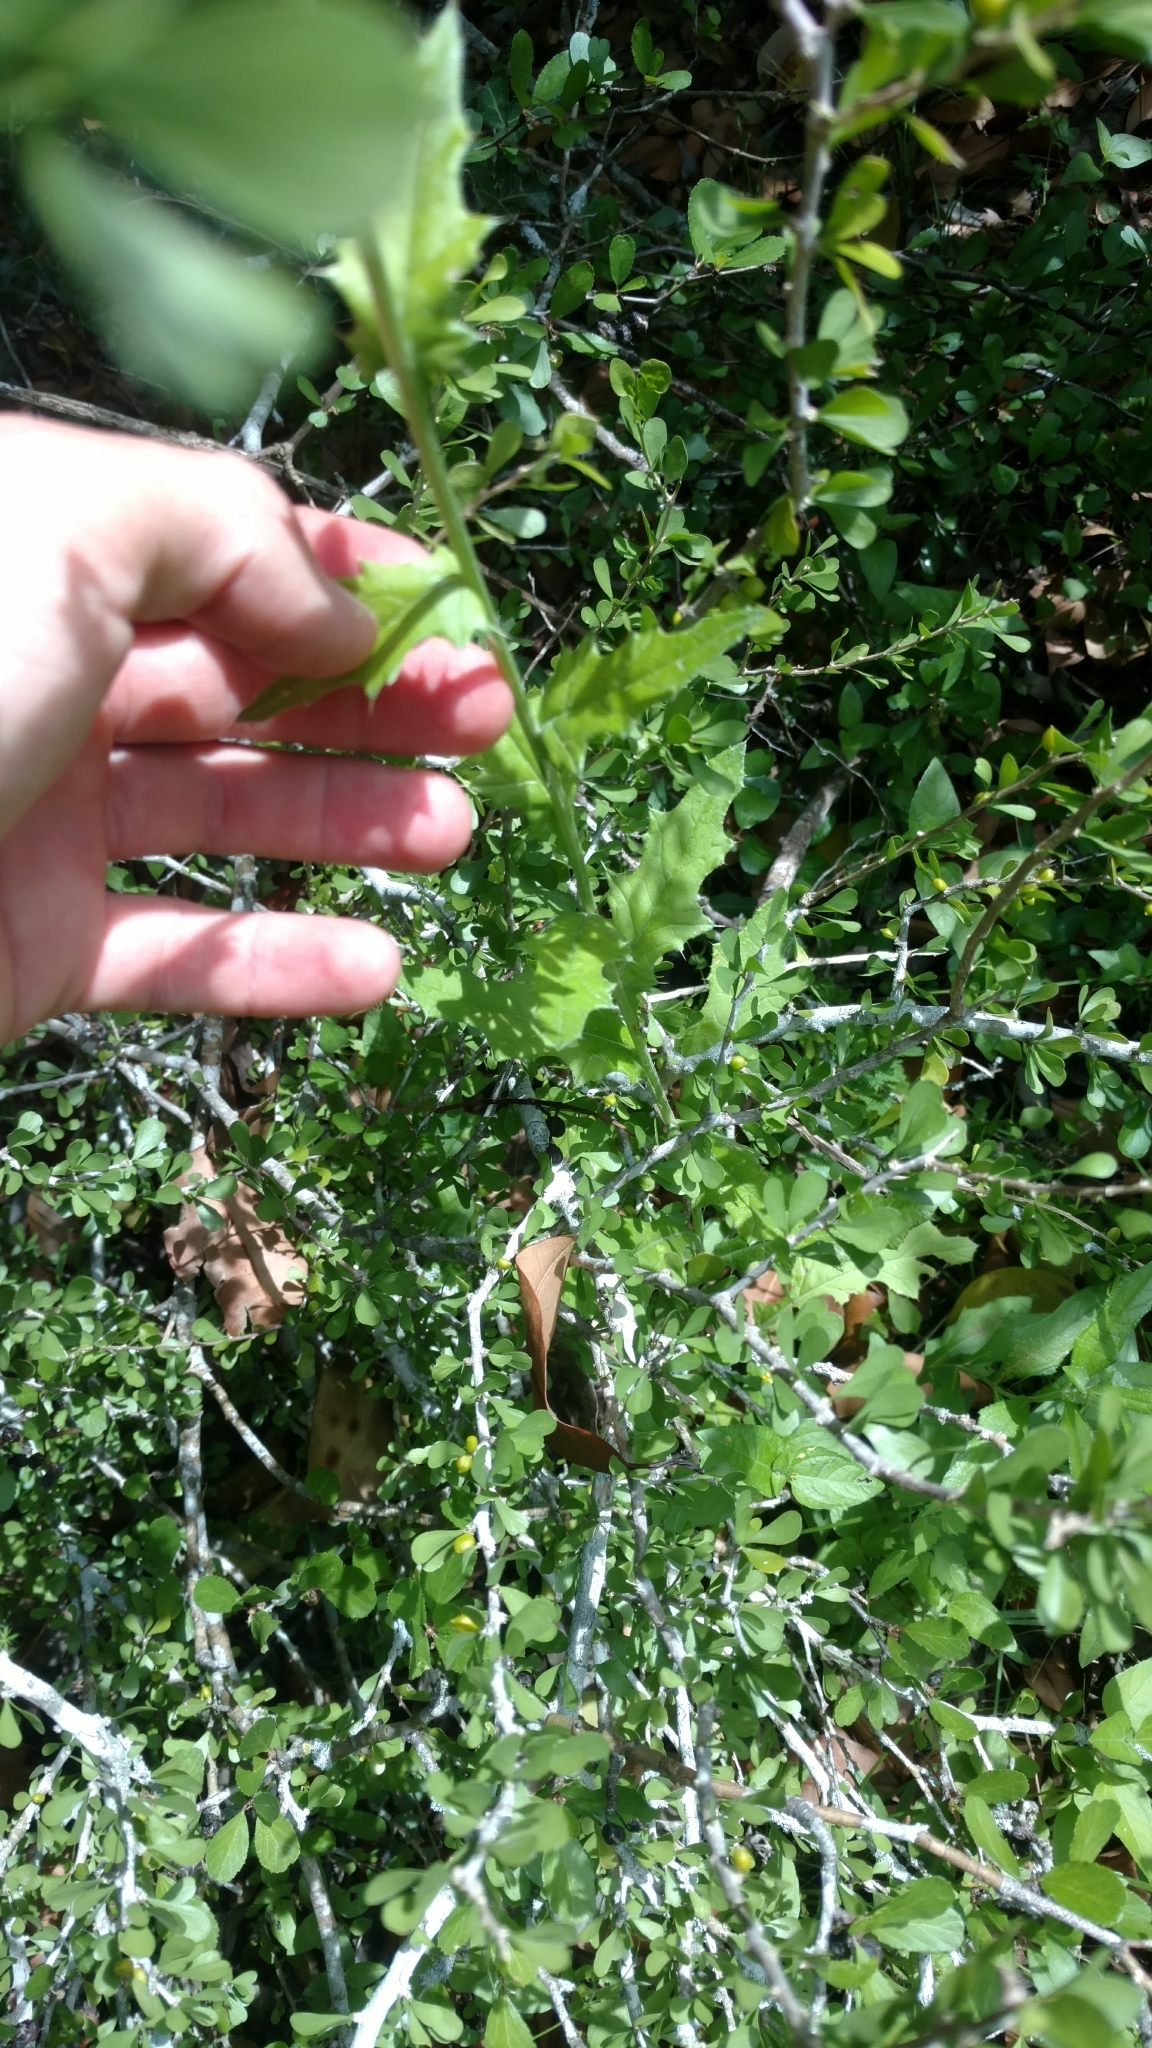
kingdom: Plantae
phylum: Tracheophyta
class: Magnoliopsida
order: Asterales
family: Asteraceae
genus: Cirsium
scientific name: Cirsium texanum
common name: Texas purple thistle
